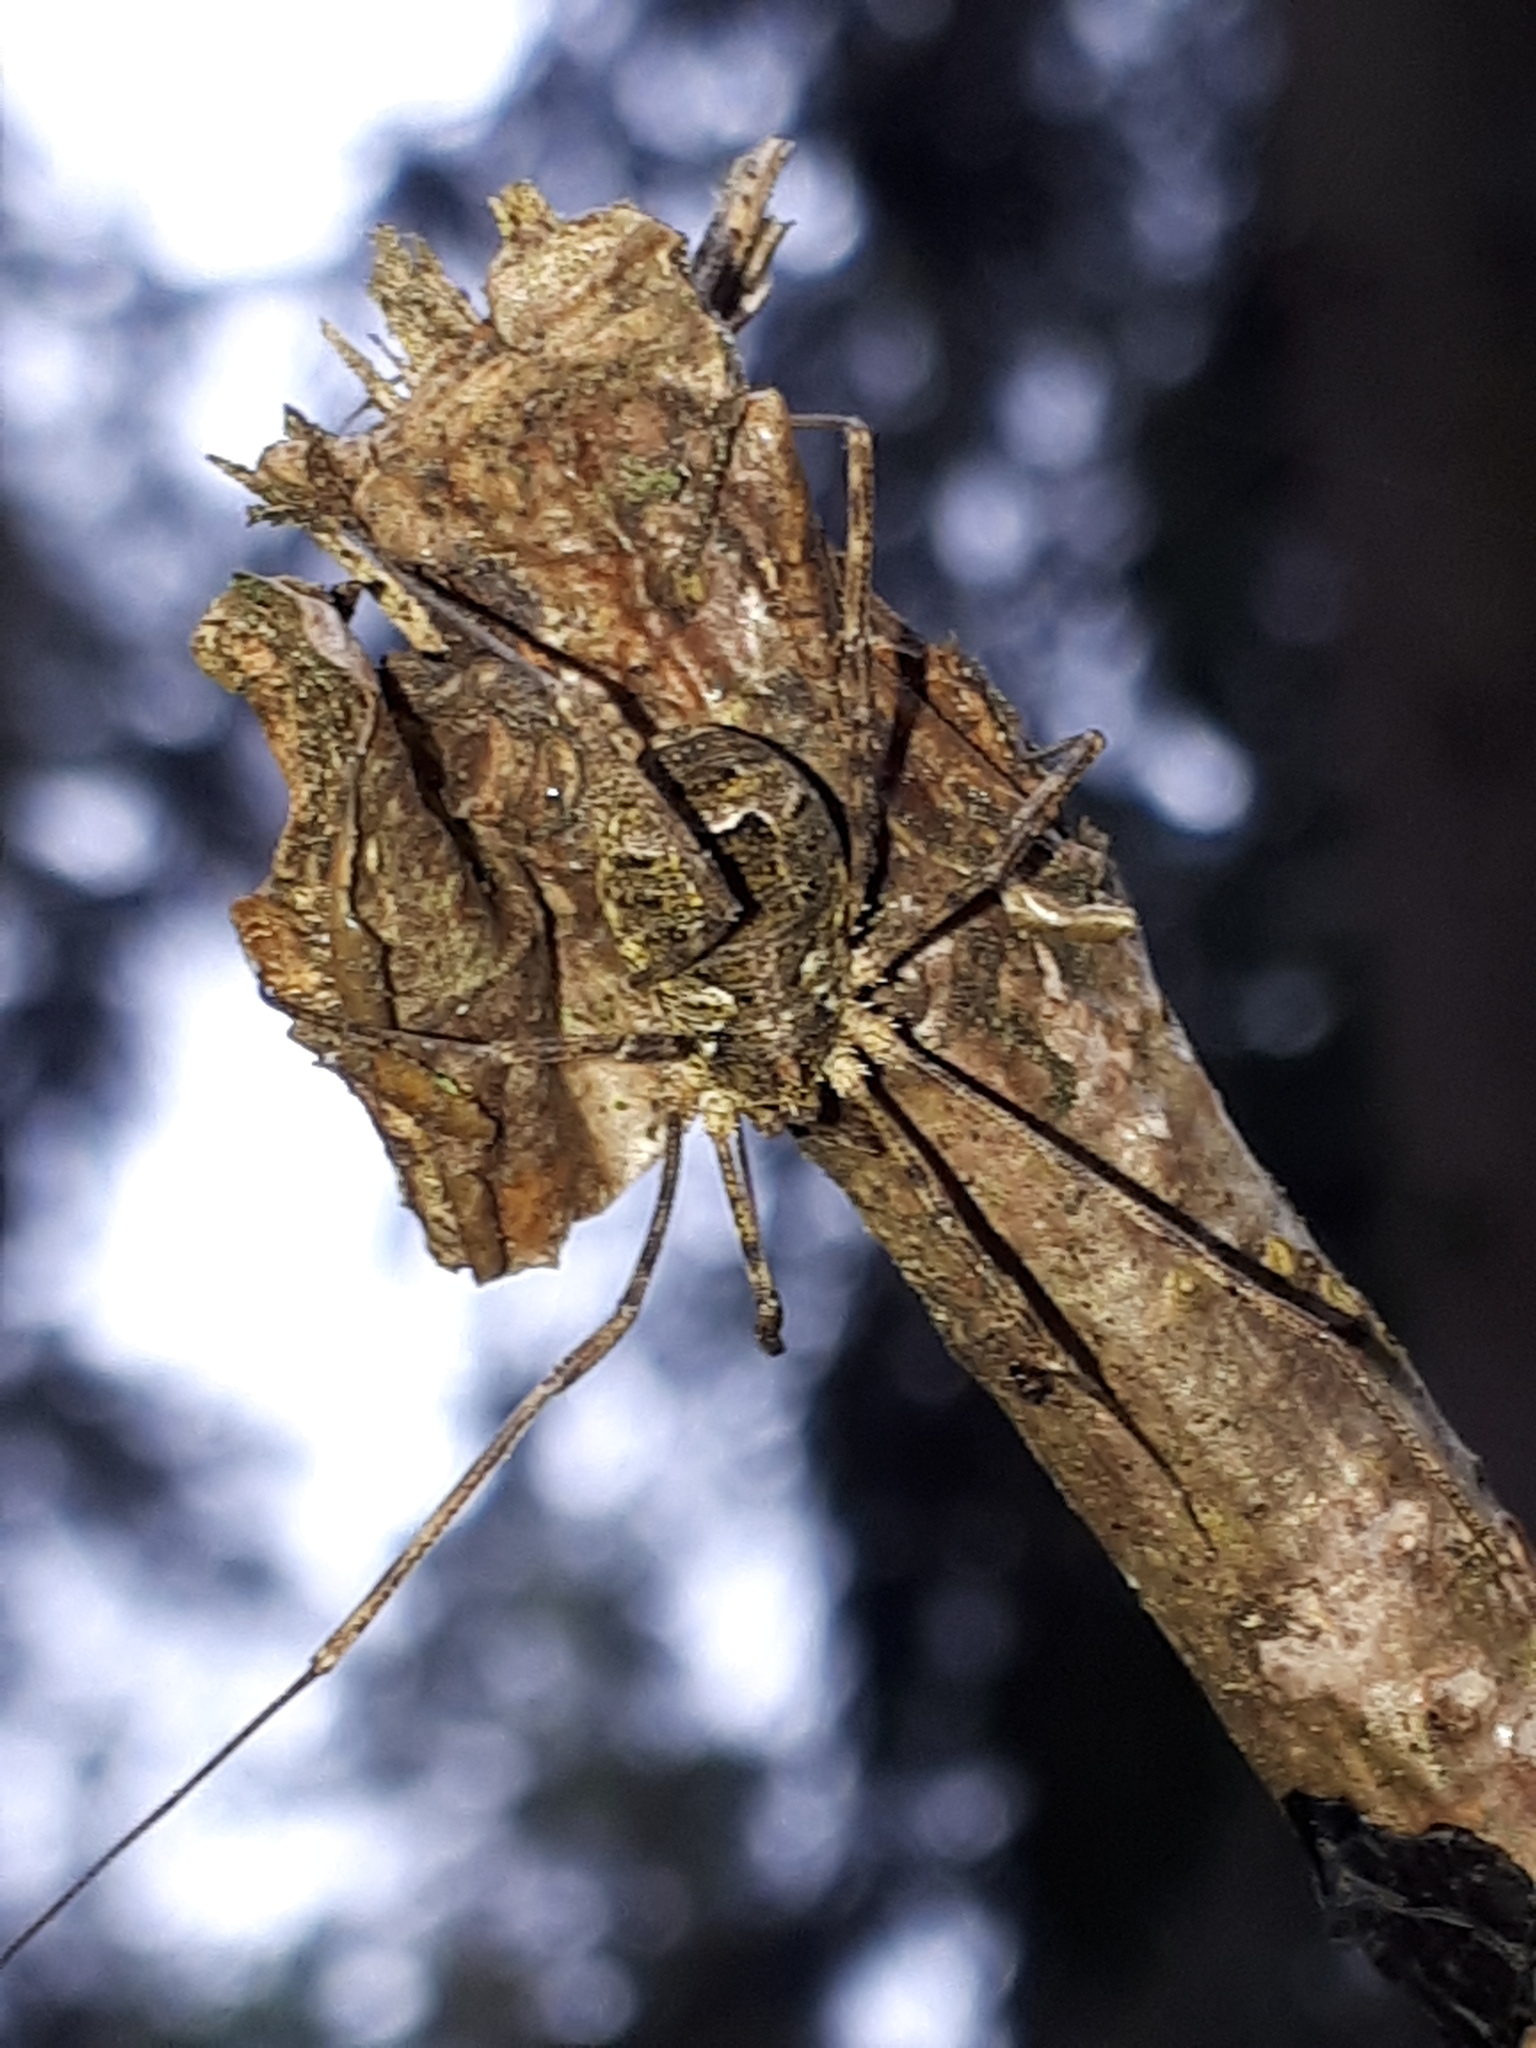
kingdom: Animalia
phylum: Arthropoda
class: Arachnida
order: Opiliones
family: Phalangiidae
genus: Lacinius
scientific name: Lacinius dentiger
